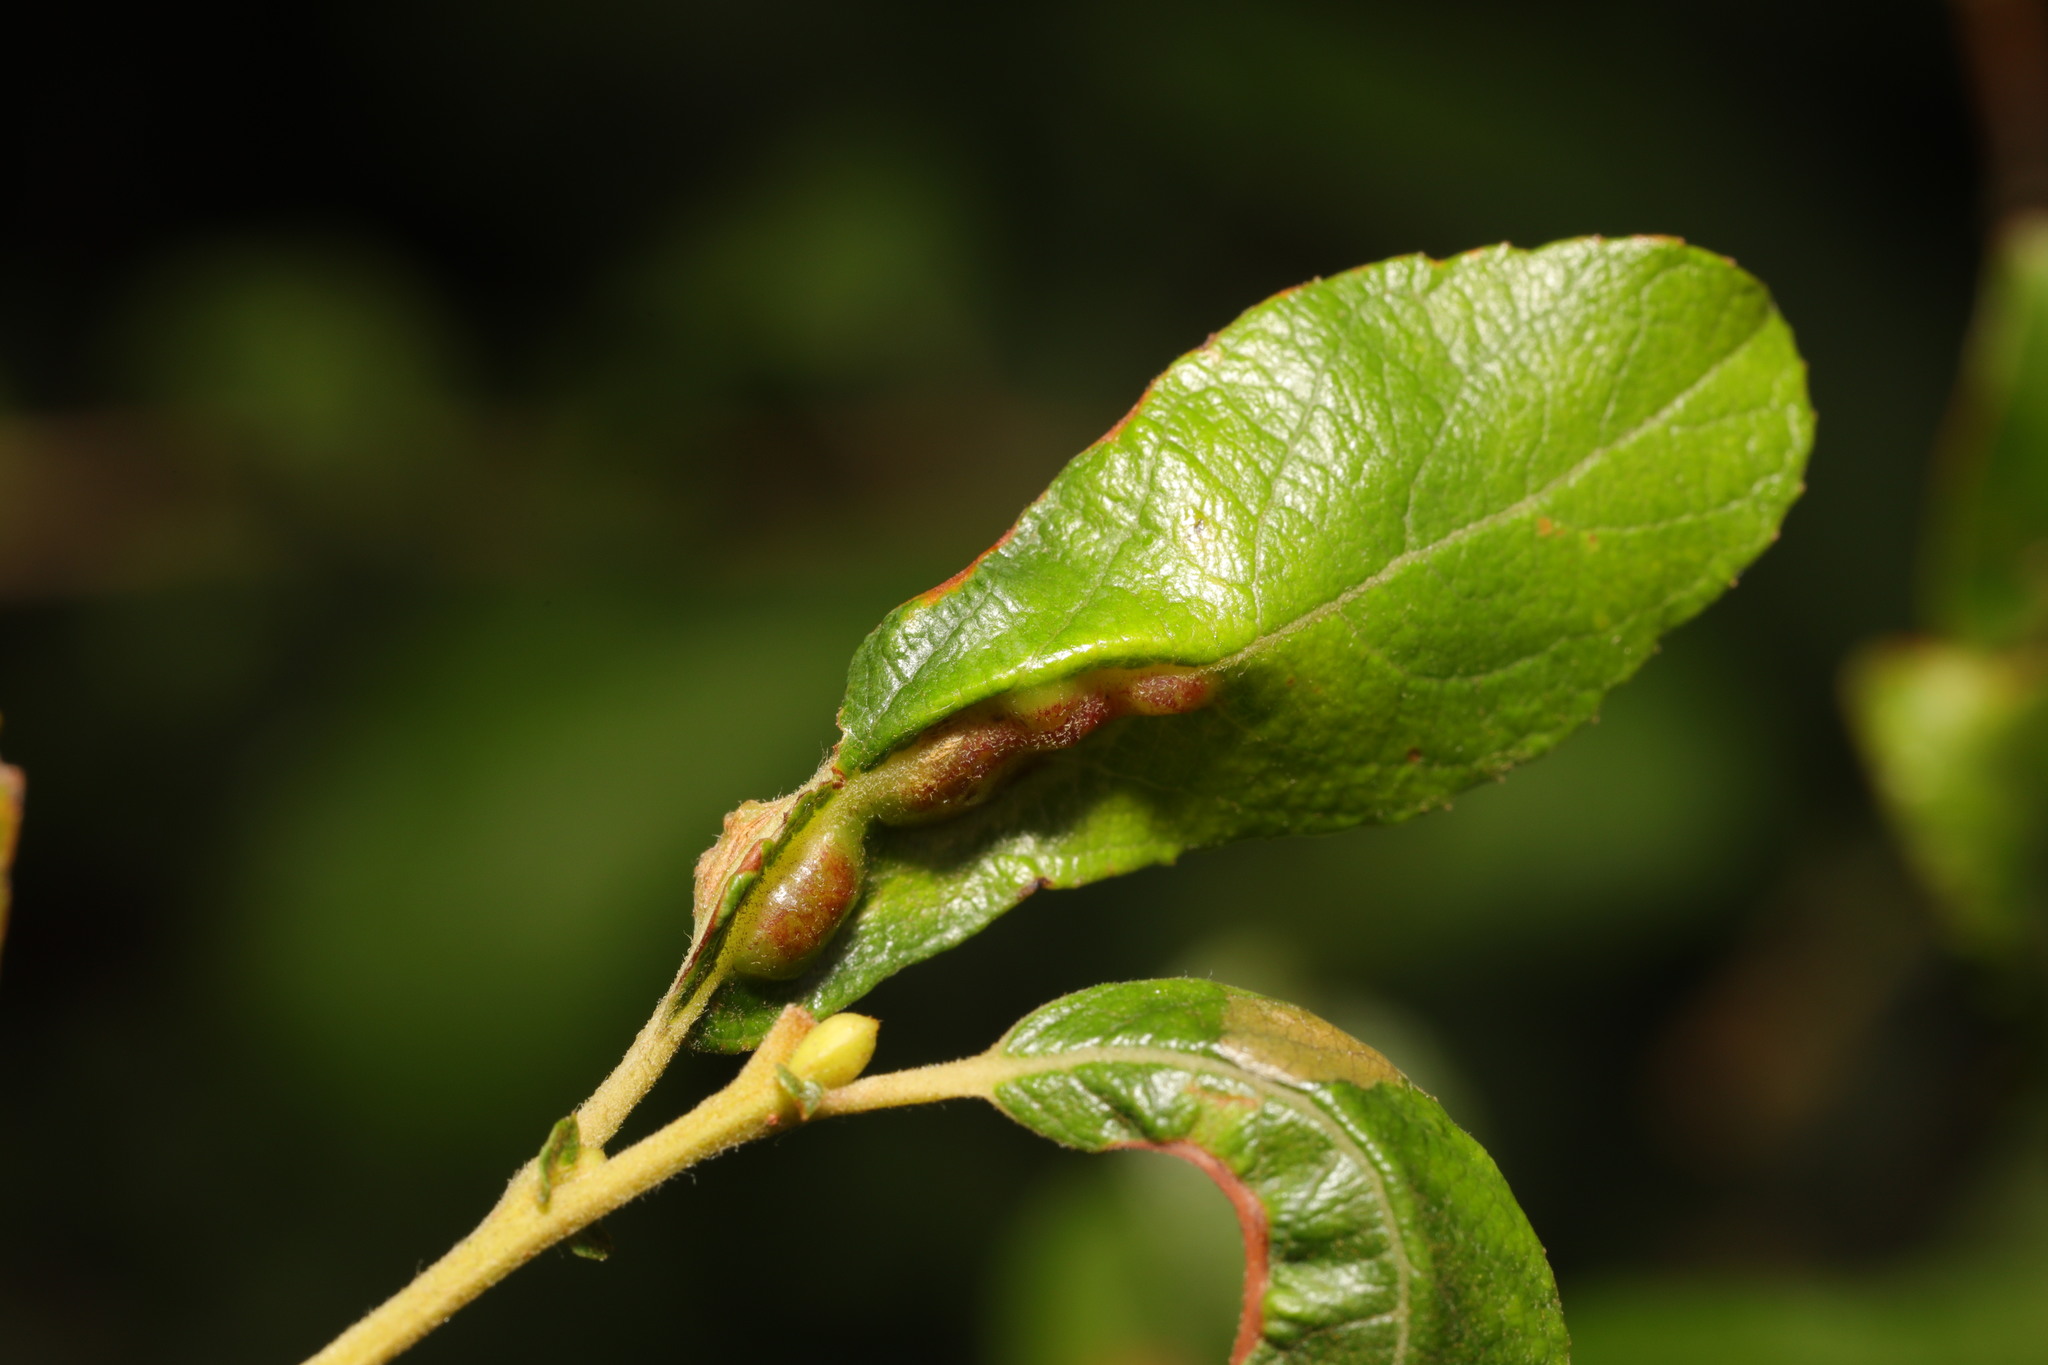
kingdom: Animalia
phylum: Arthropoda
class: Insecta
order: Diptera
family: Cecidomyiidae
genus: Iteomyia
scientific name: Iteomyia major
